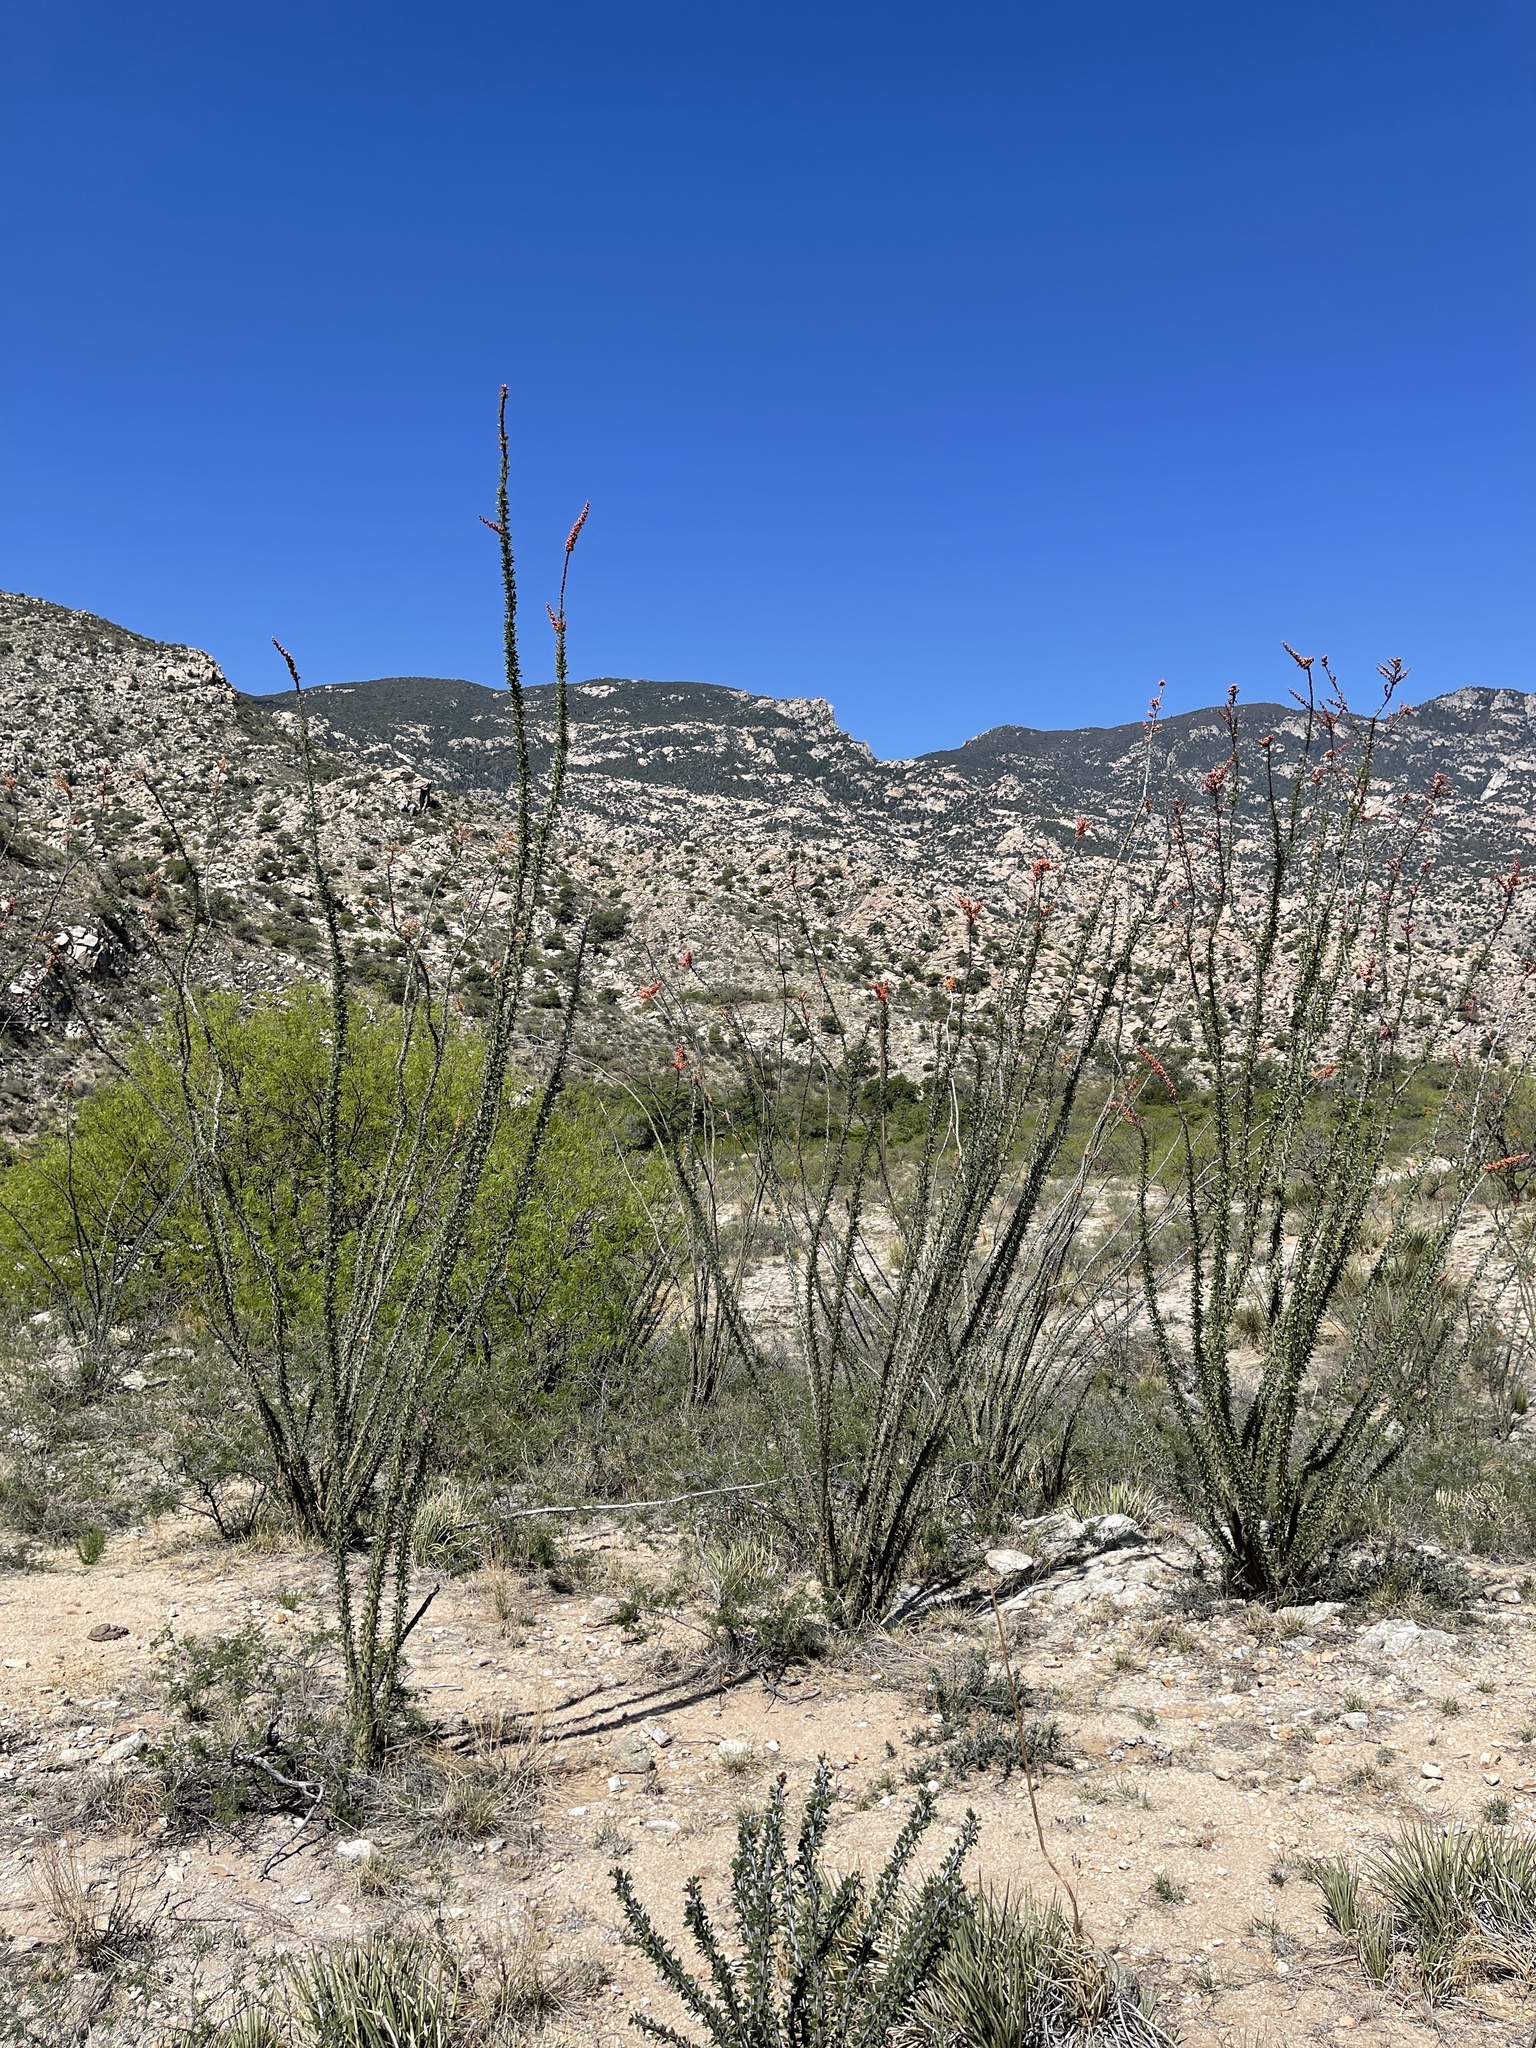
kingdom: Plantae
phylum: Tracheophyta
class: Magnoliopsida
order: Ericales
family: Fouquieriaceae
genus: Fouquieria
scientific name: Fouquieria splendens
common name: Vine-cactus
